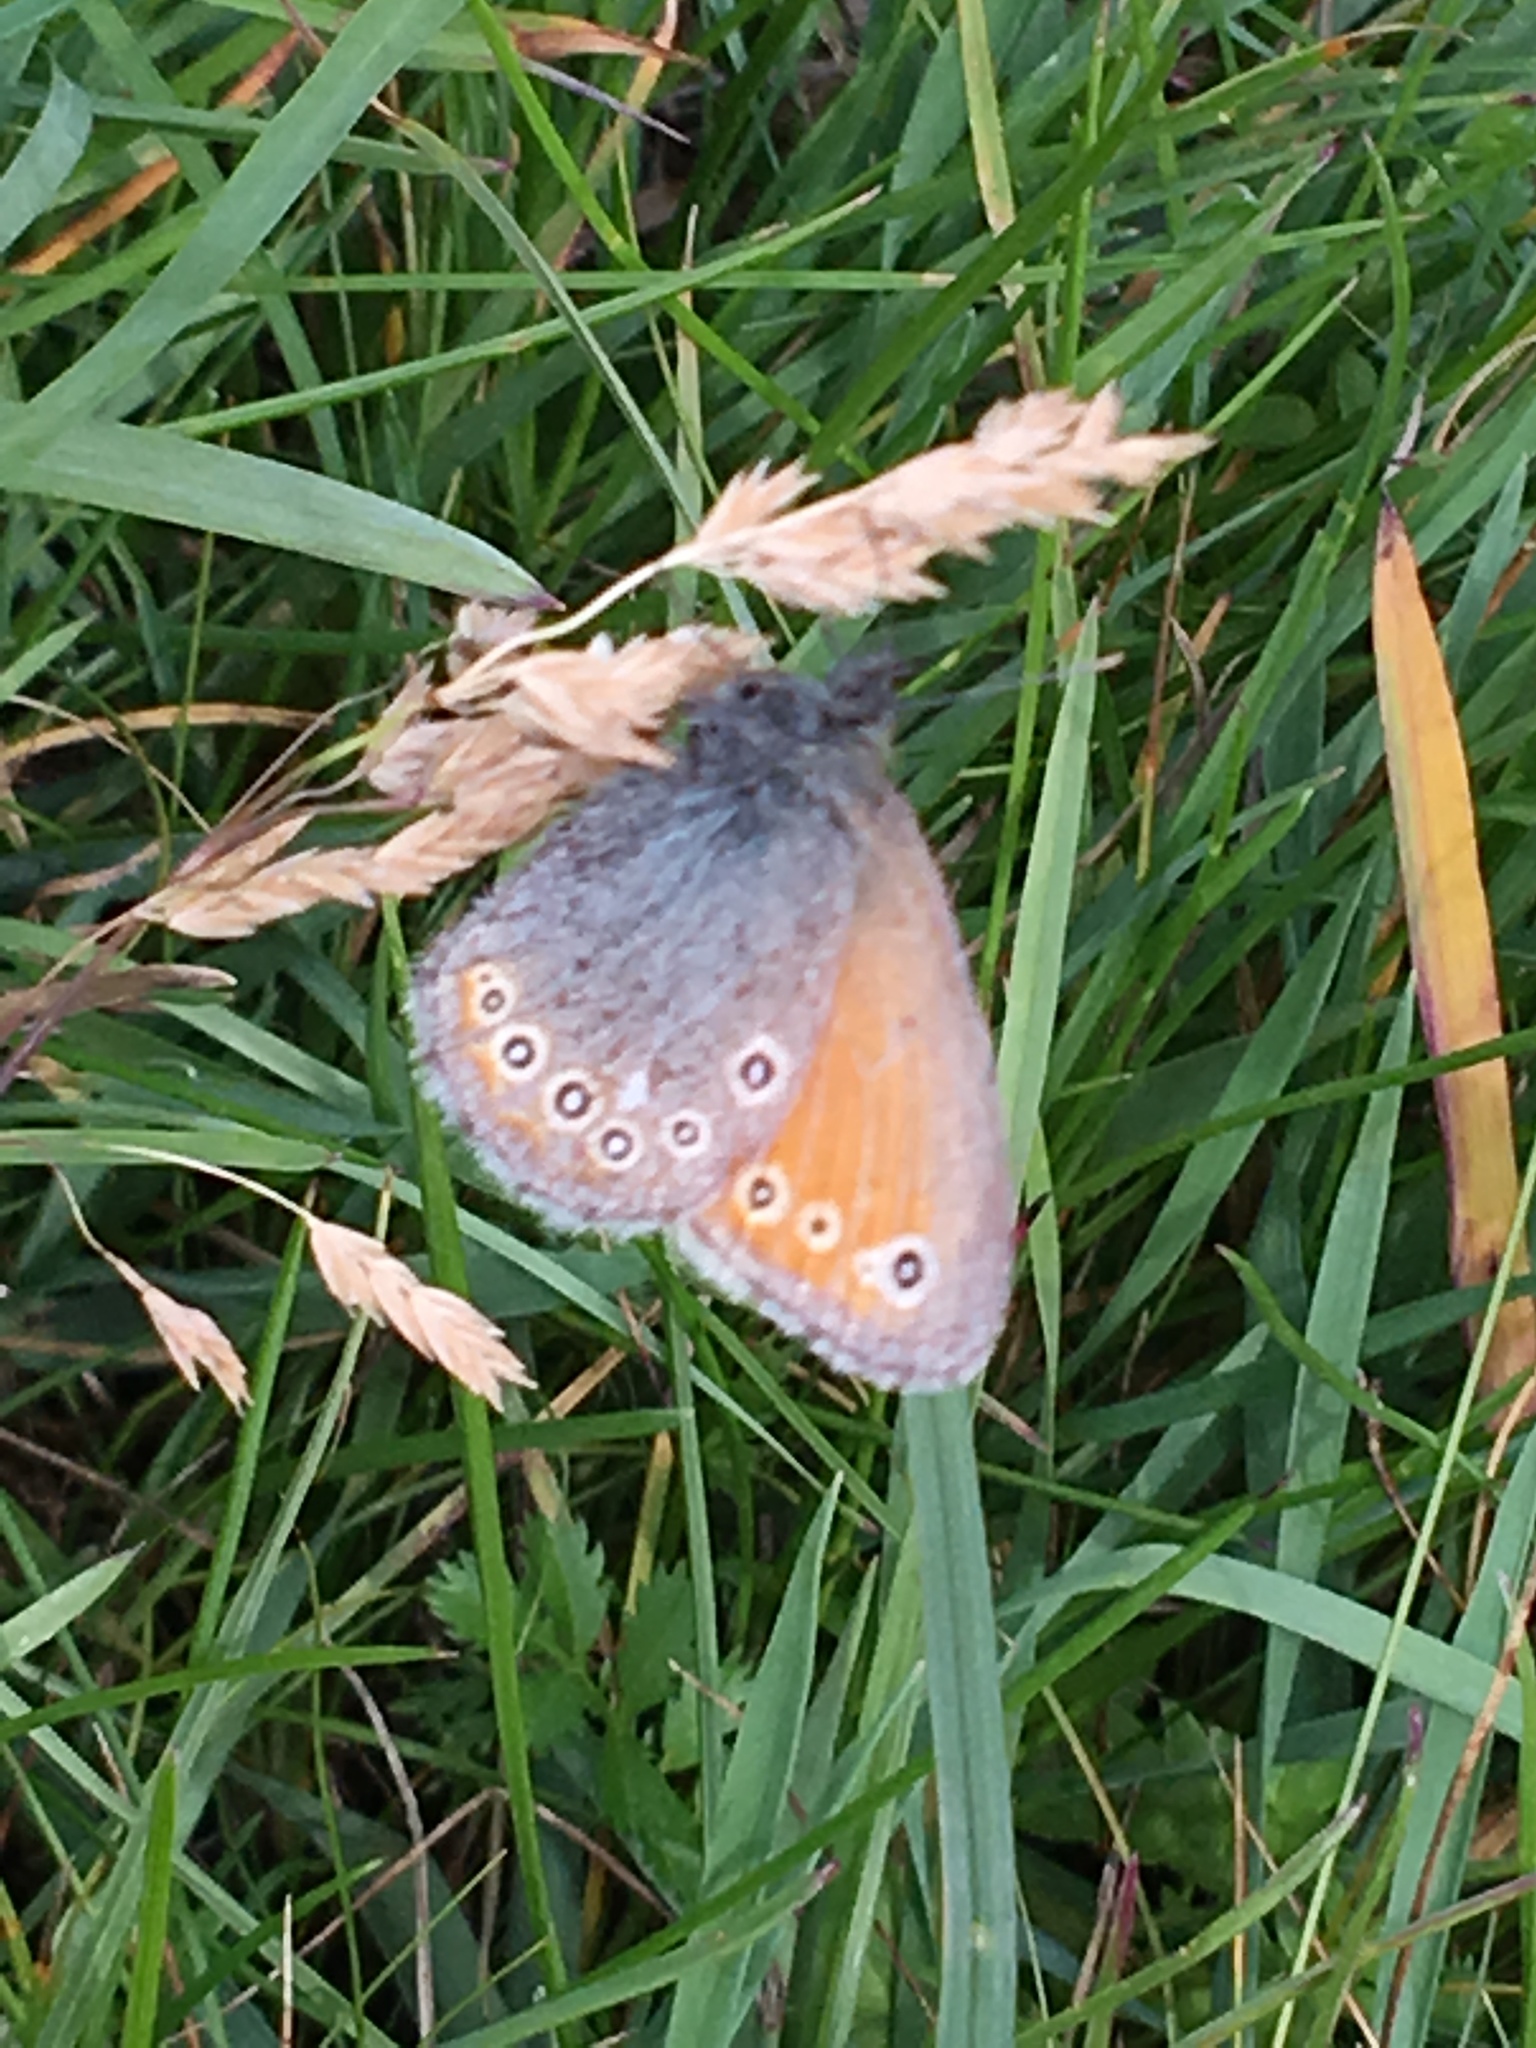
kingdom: Animalia
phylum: Arthropoda
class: Insecta
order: Lepidoptera
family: Nymphalidae
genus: Coenonympha
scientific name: Coenonympha amaryllis
